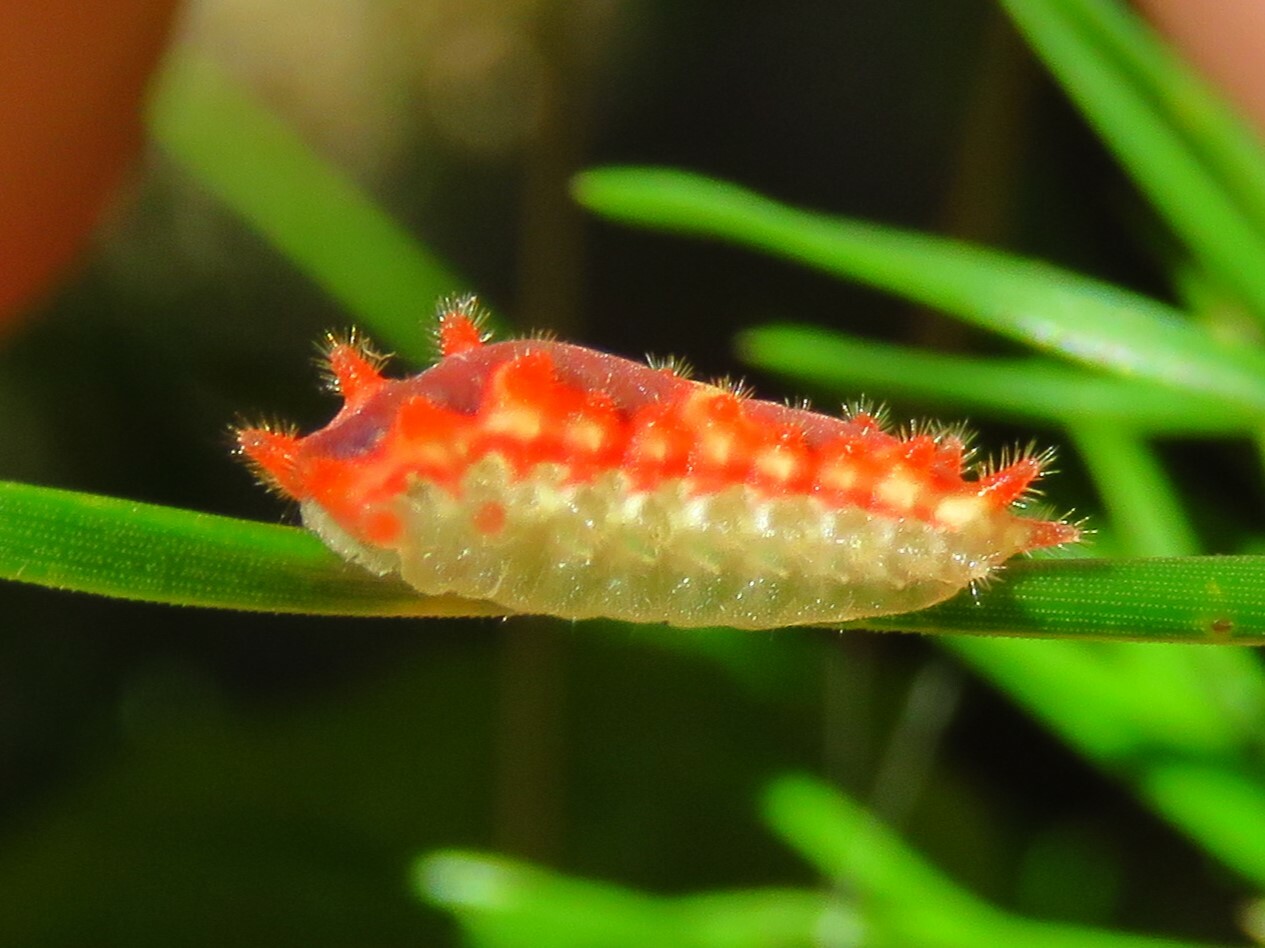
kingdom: Animalia
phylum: Arthropoda
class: Insecta
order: Lepidoptera
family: Limacodidae
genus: Adoneta
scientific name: Adoneta spinuloides
